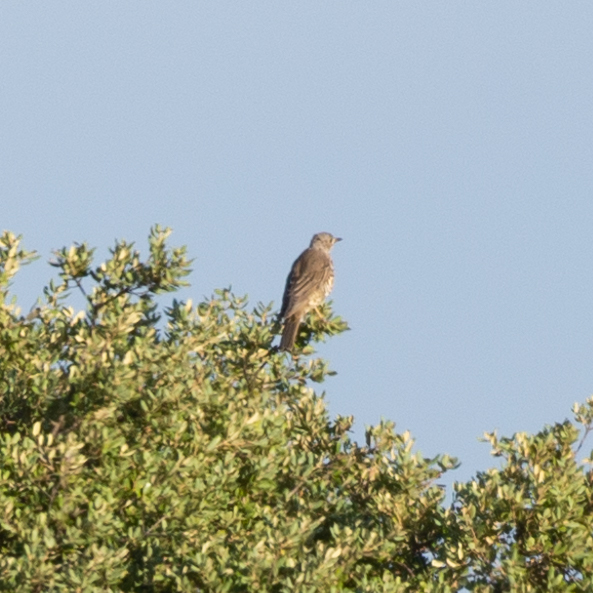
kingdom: Animalia
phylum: Chordata
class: Aves
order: Passeriformes
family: Turdidae
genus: Turdus
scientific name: Turdus viscivorus
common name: Mistle thrush
